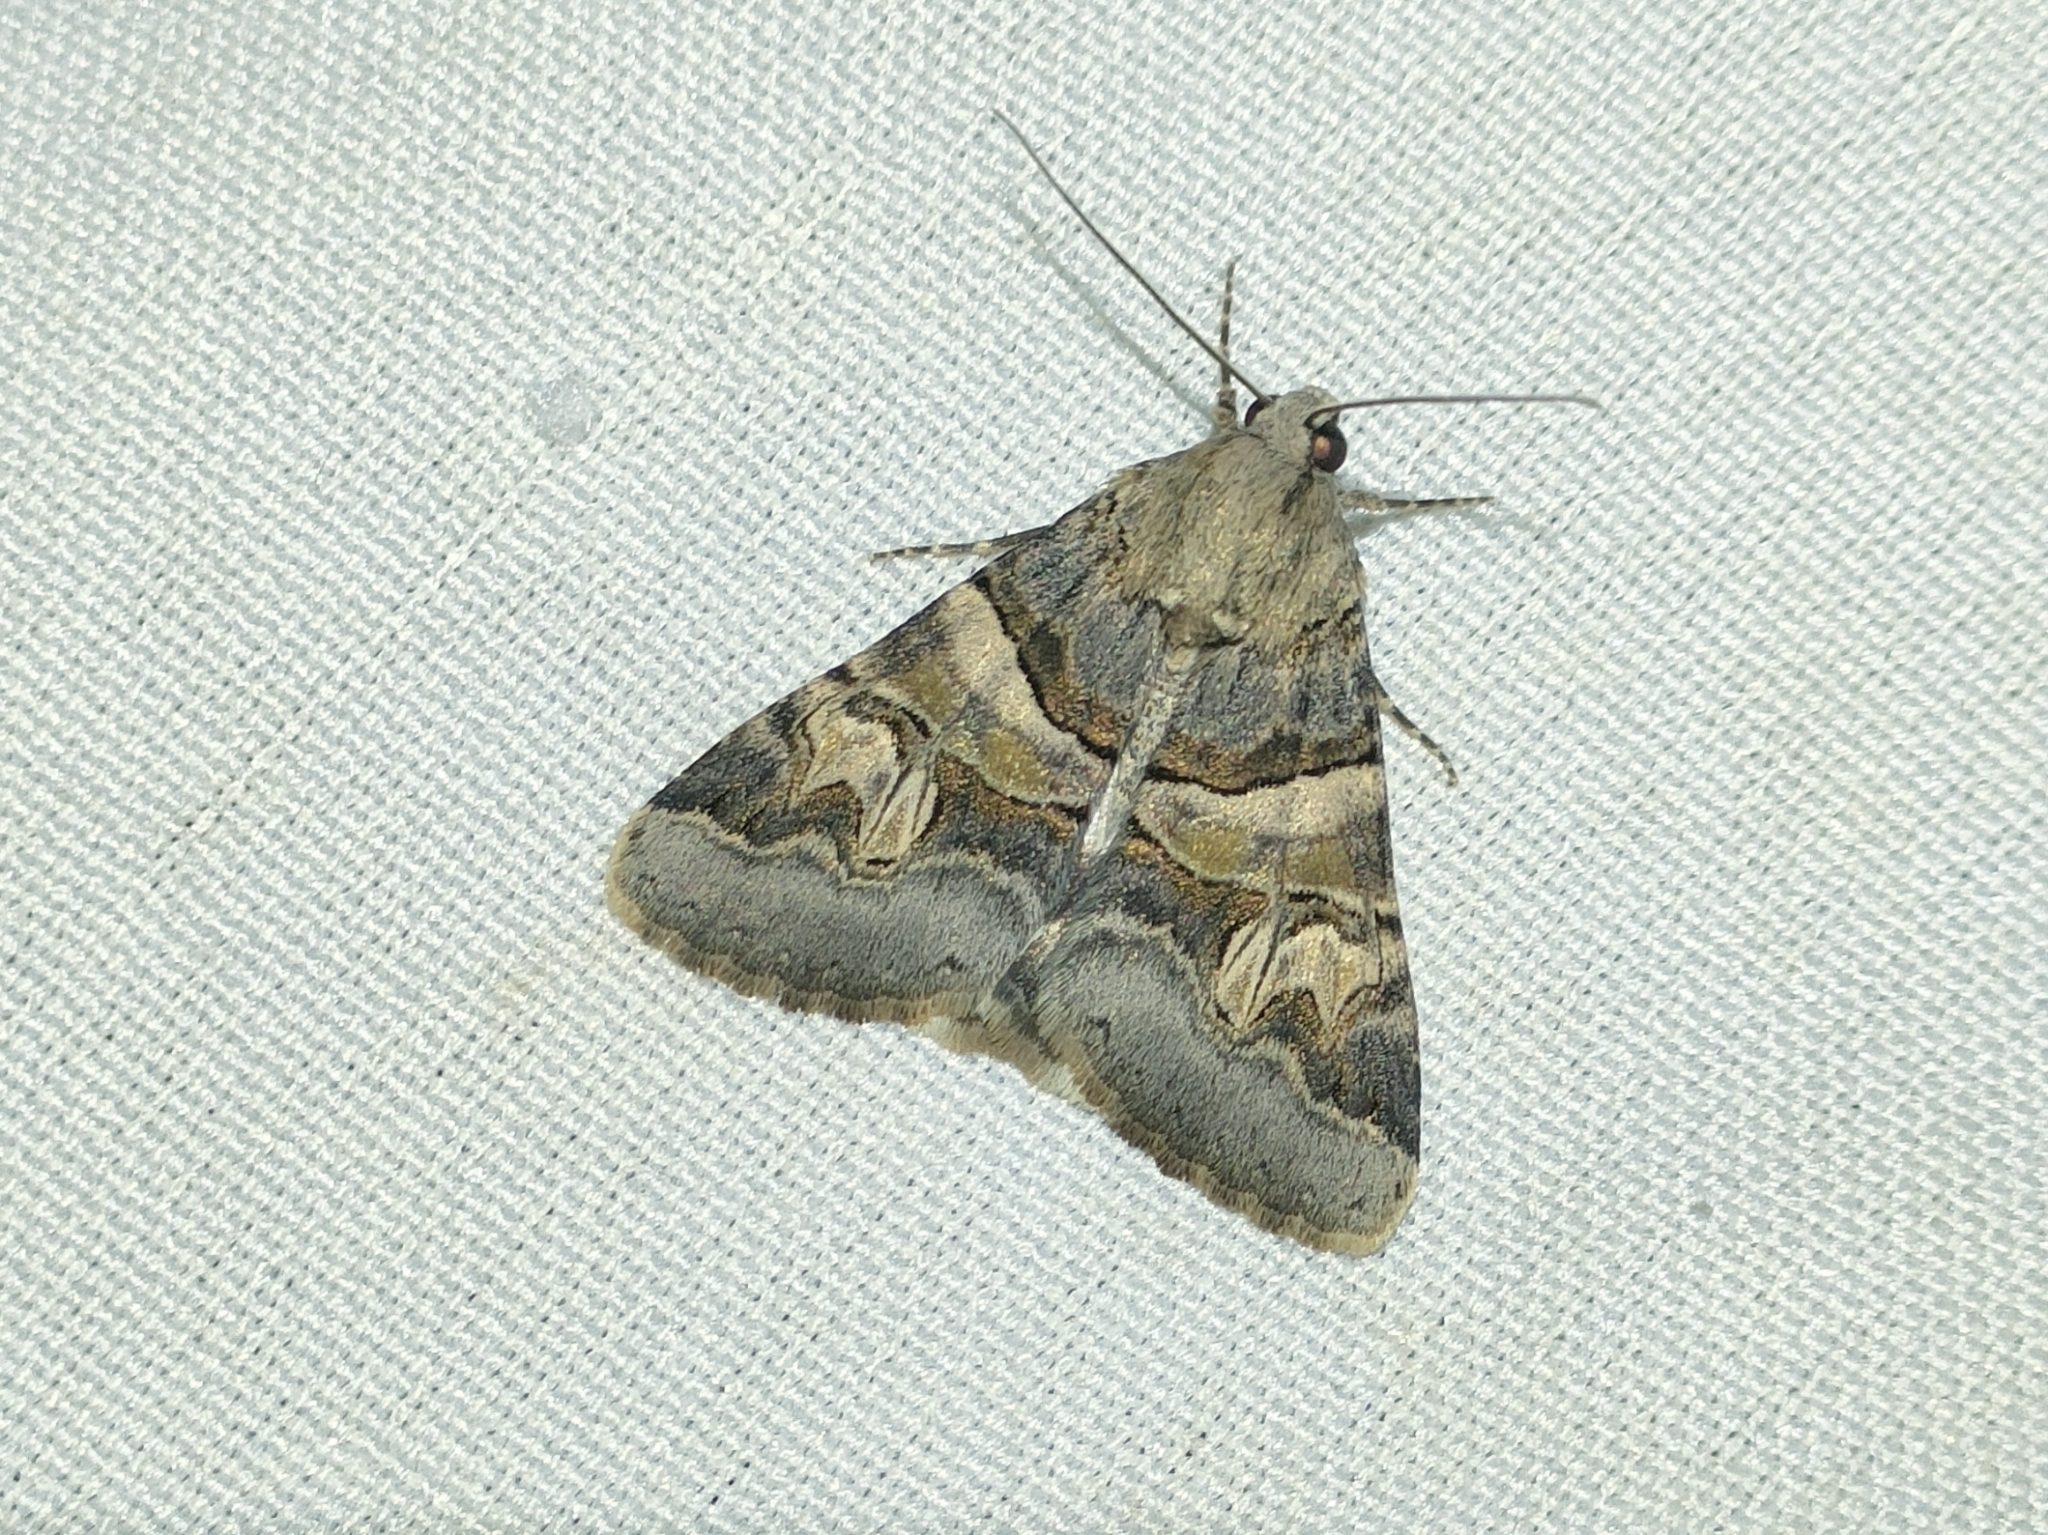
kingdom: Animalia
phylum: Arthropoda
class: Insecta
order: Lepidoptera
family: Erebidae
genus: Drasteria
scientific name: Drasteria cailino
